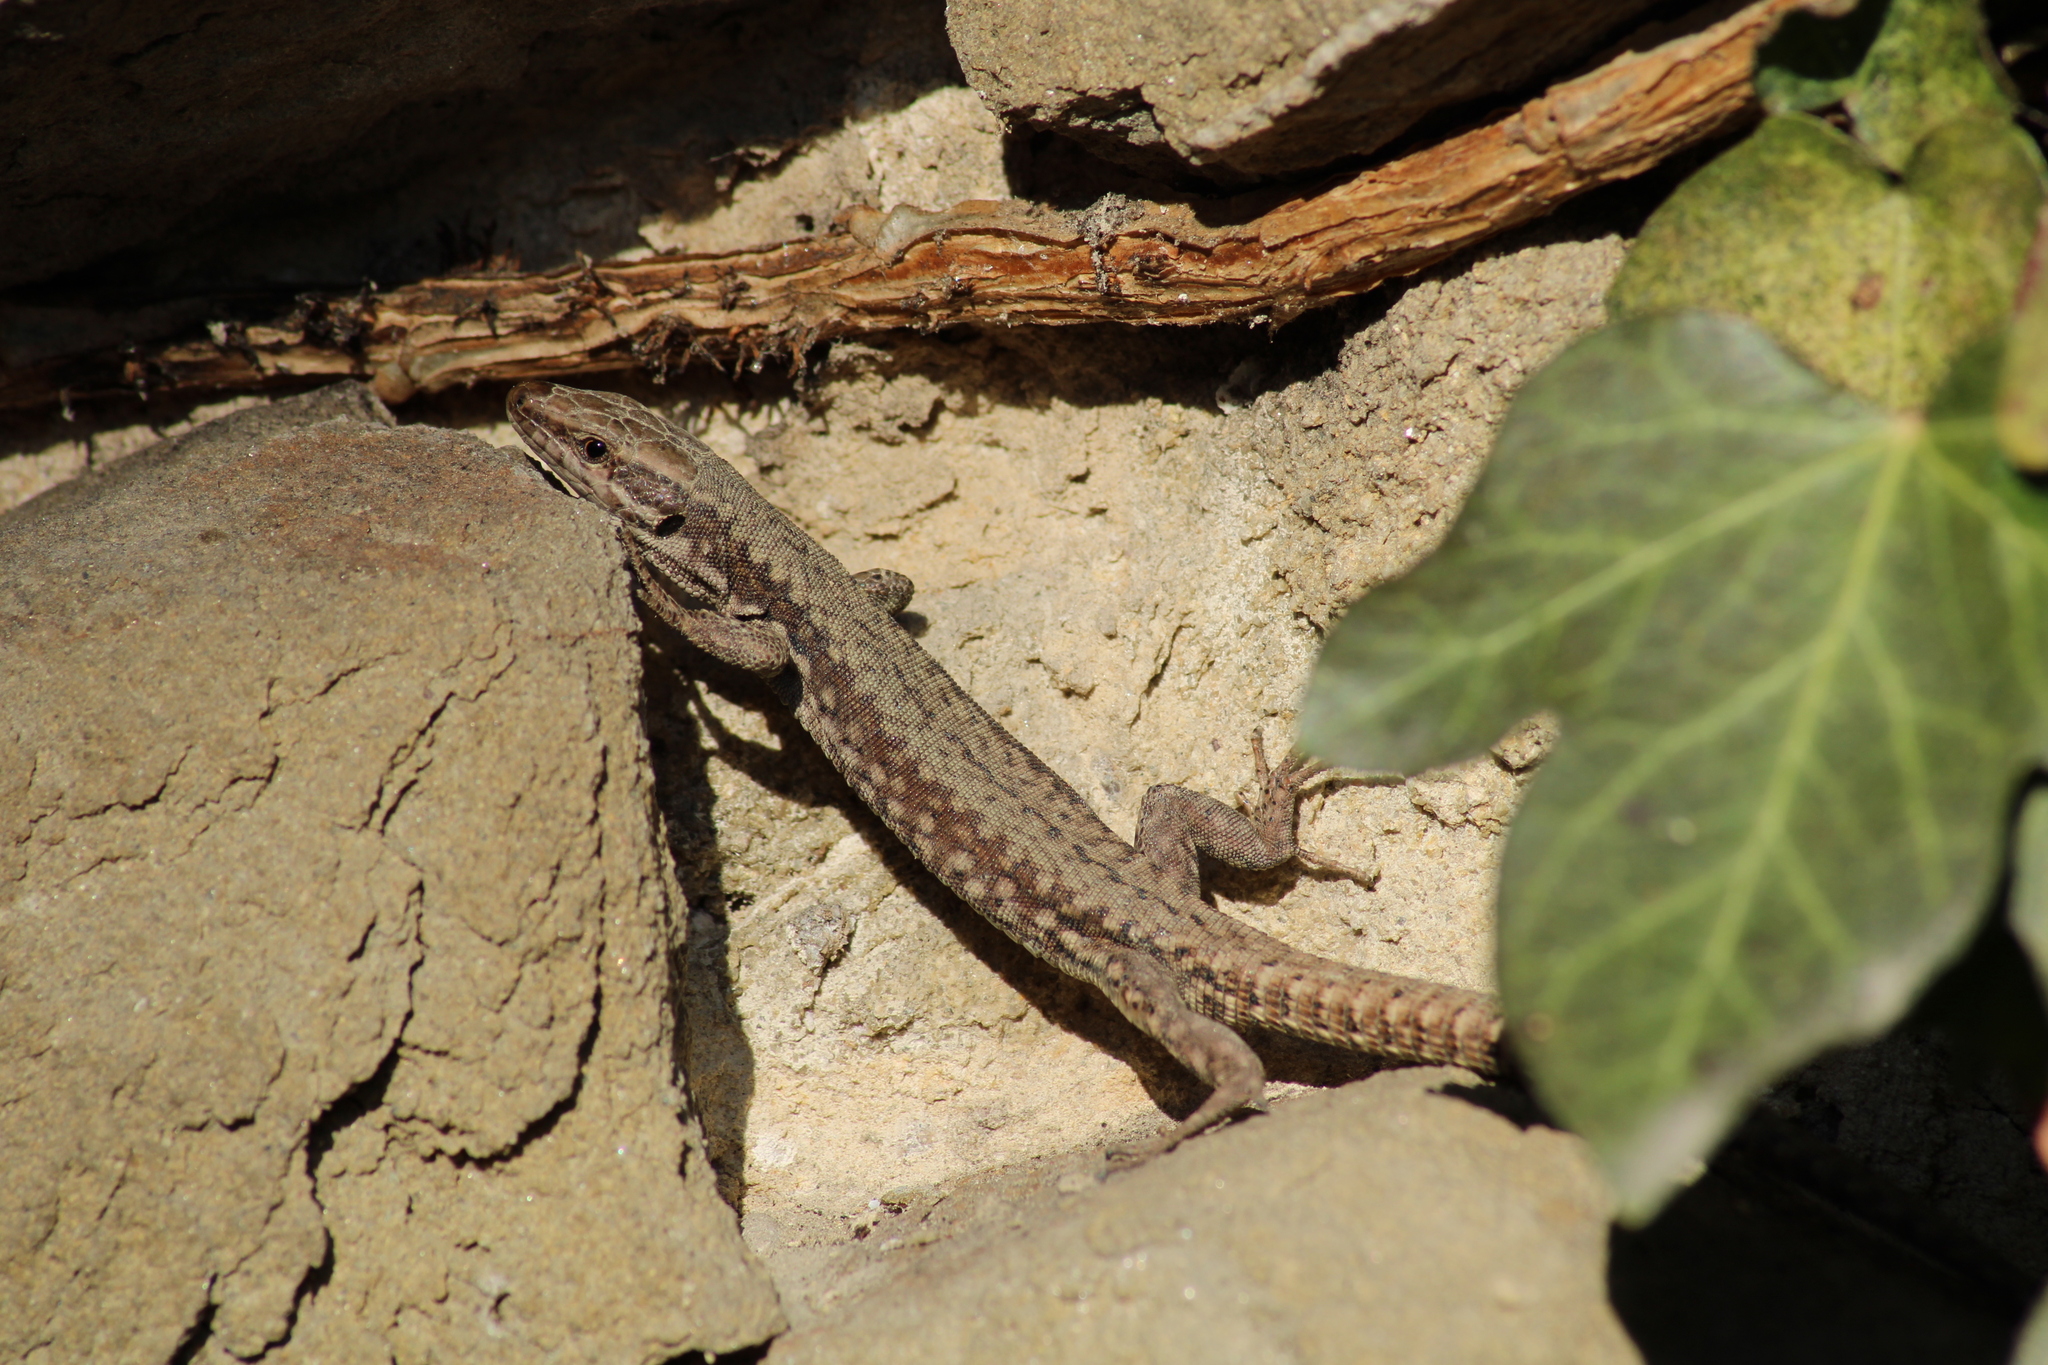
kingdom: Animalia
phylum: Chordata
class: Squamata
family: Lacertidae
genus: Podarcis
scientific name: Podarcis muralis
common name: Common wall lizard
